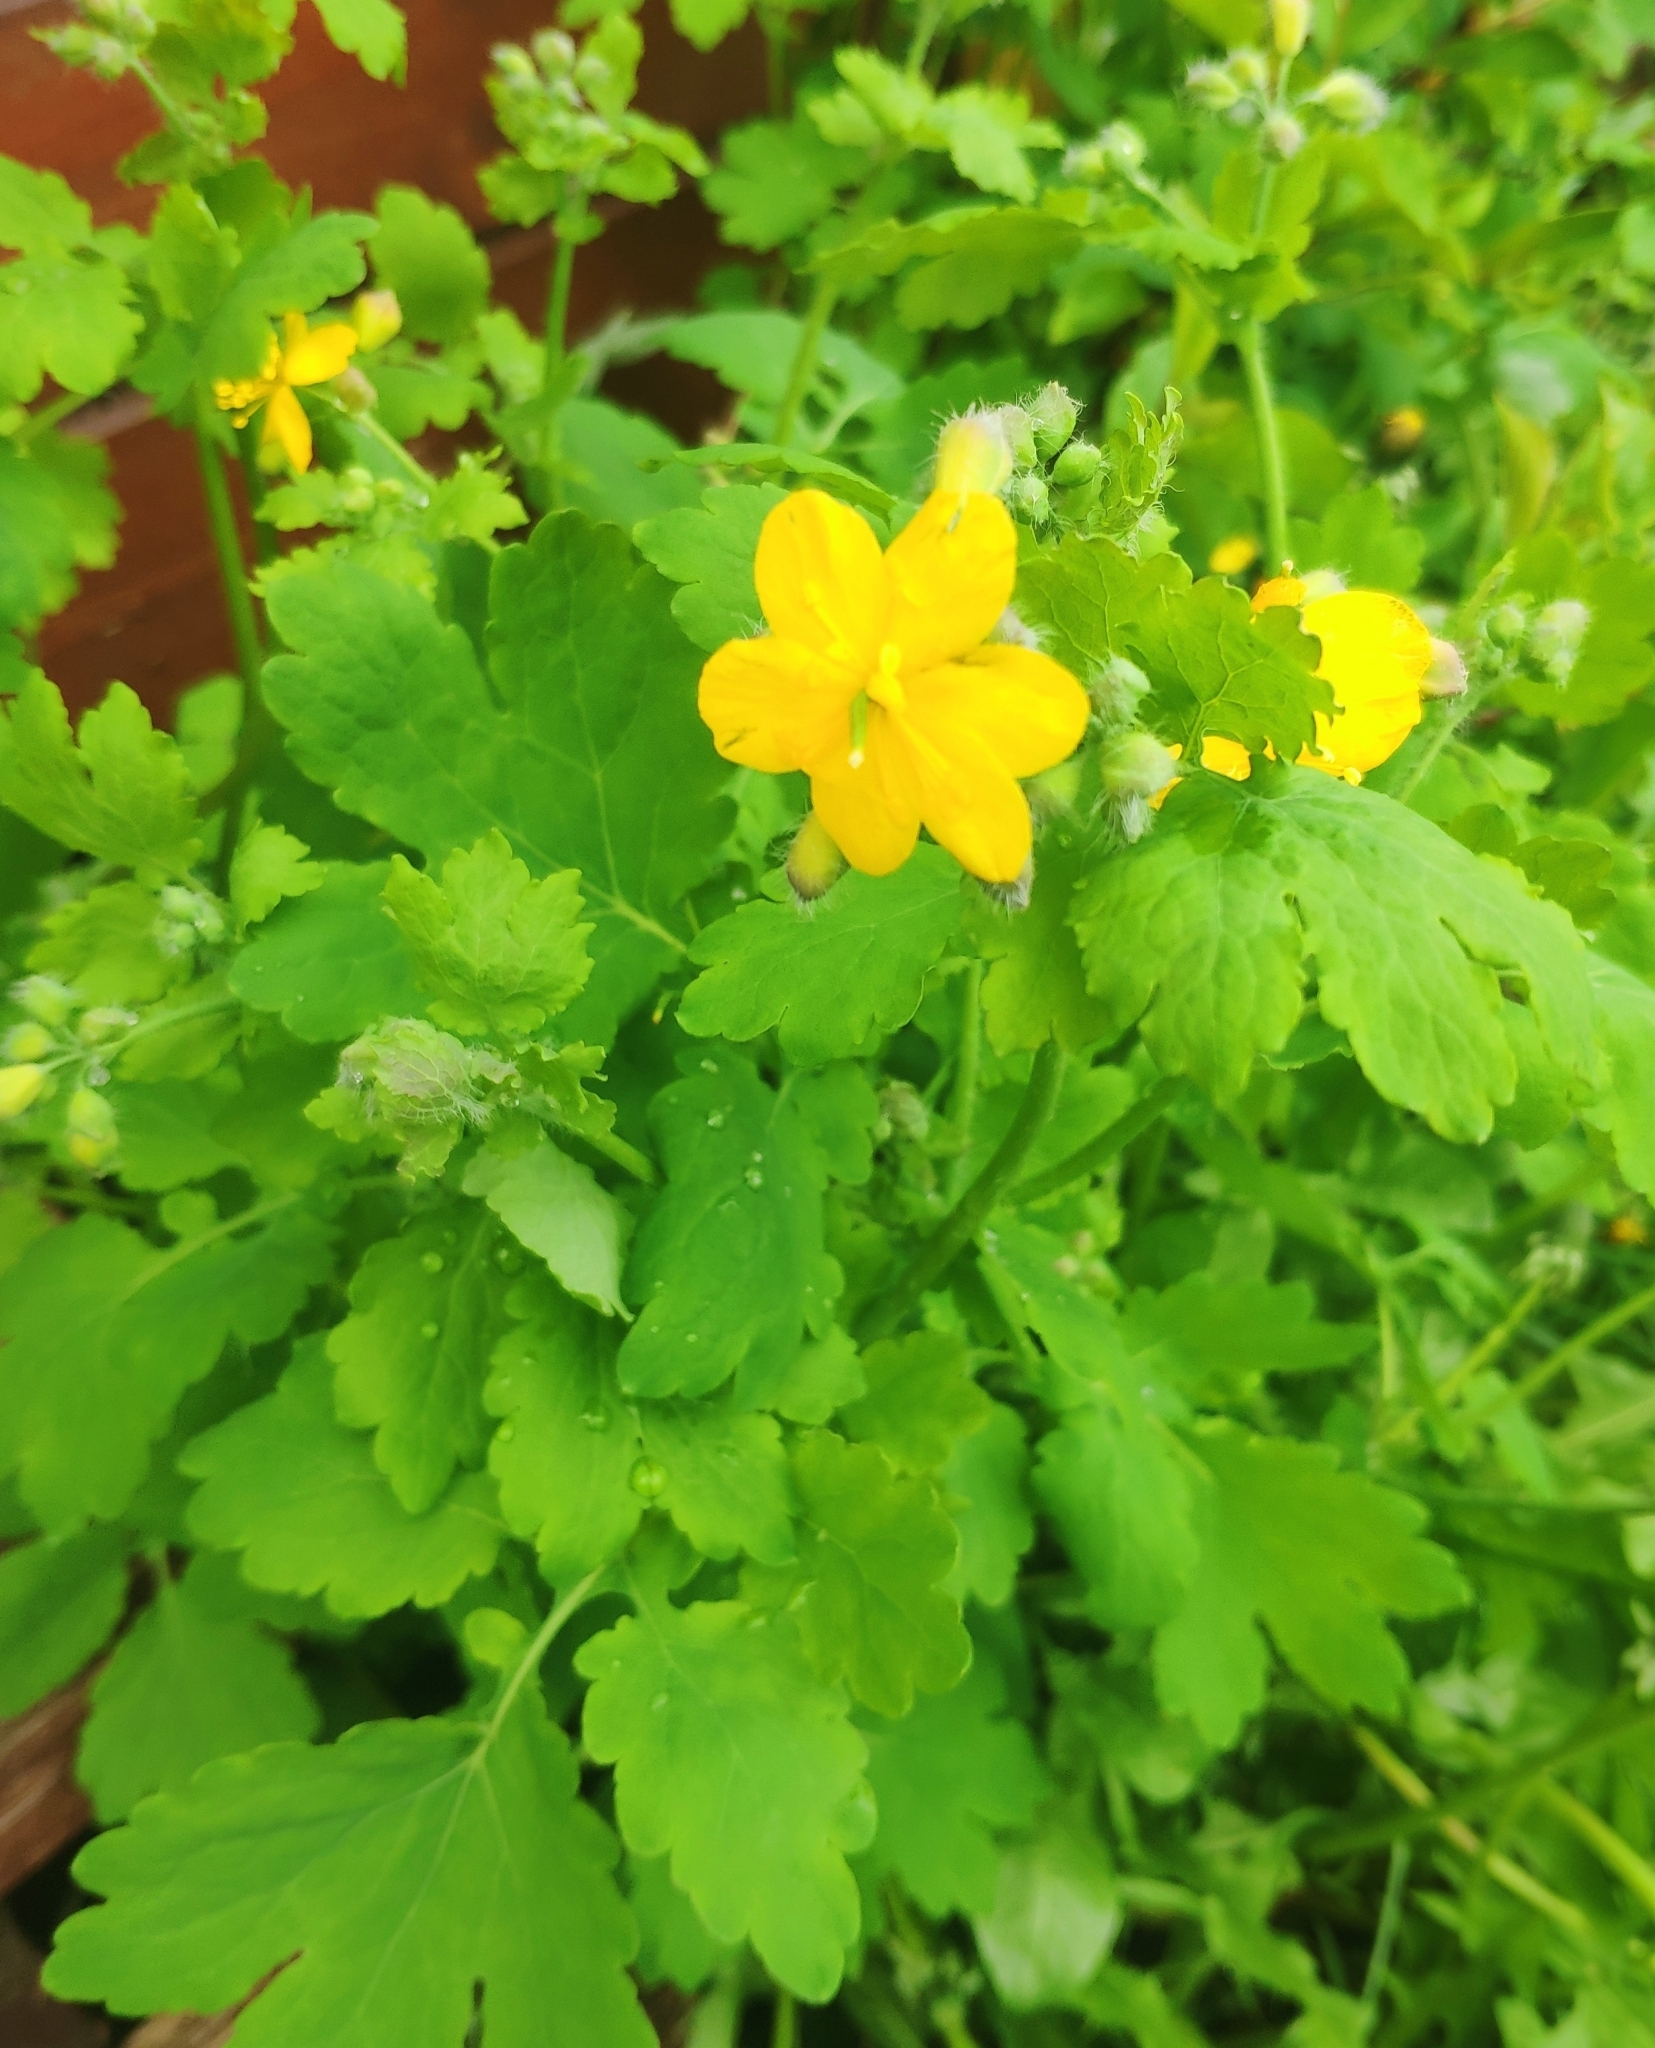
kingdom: Plantae
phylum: Tracheophyta
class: Magnoliopsida
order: Ranunculales
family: Papaveraceae
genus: Chelidonium
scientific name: Chelidonium majus
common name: Greater celandine
